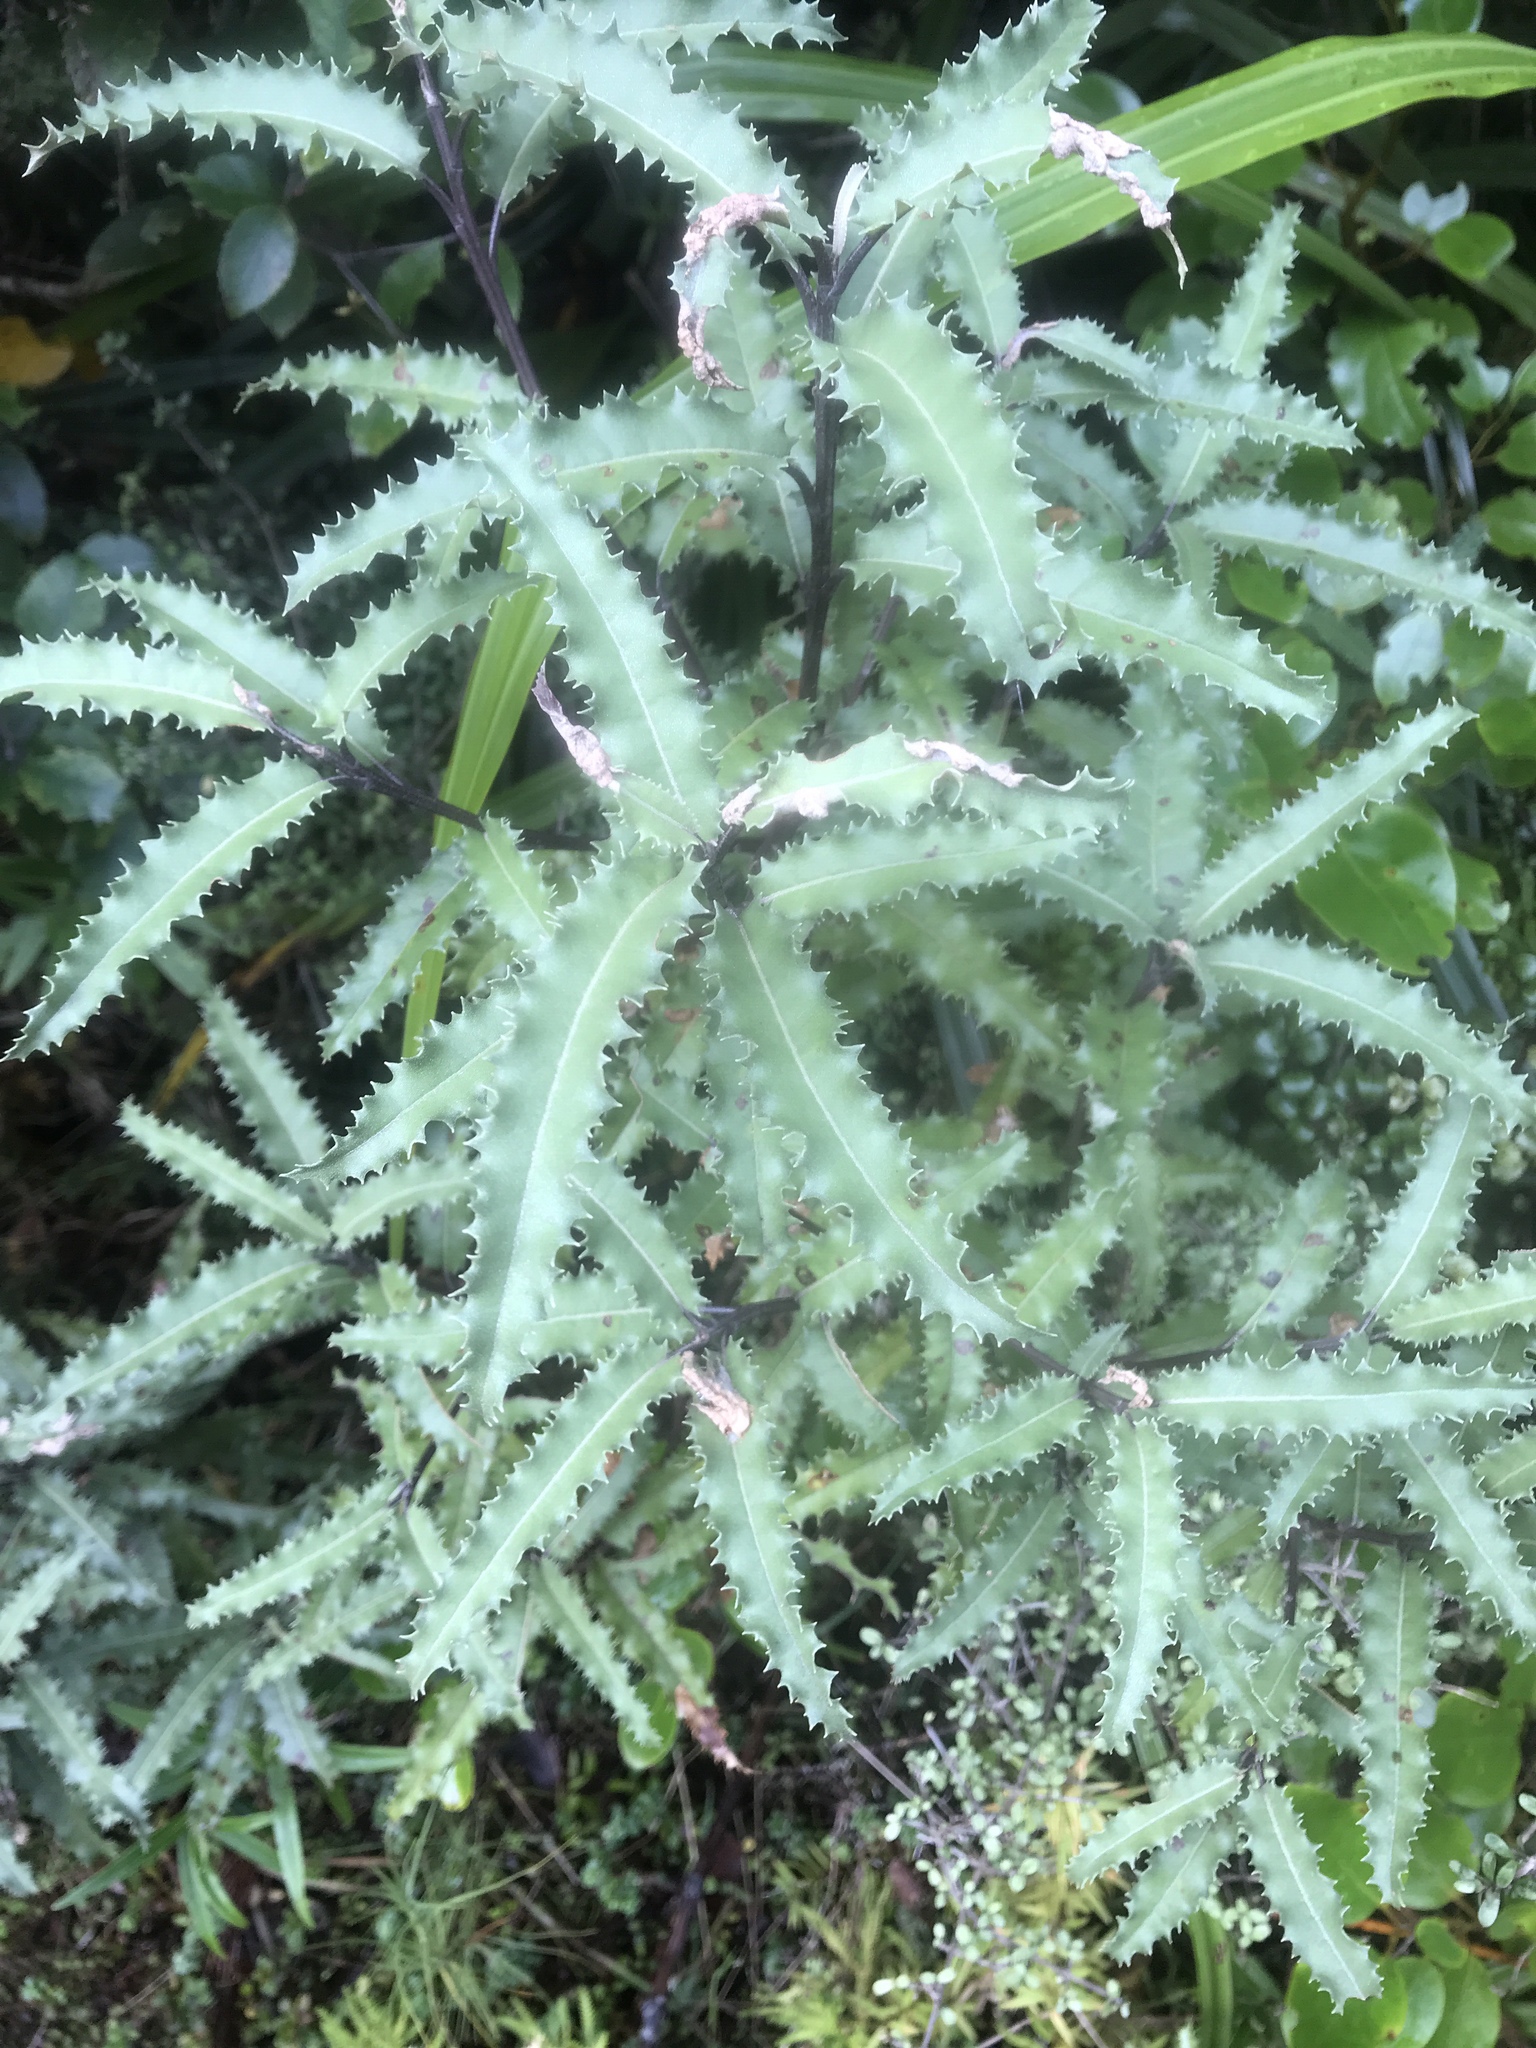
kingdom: Plantae
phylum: Tracheophyta
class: Magnoliopsida
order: Asterales
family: Asteraceae
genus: Olearia
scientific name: Olearia ilicifolia
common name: Maori-holly
